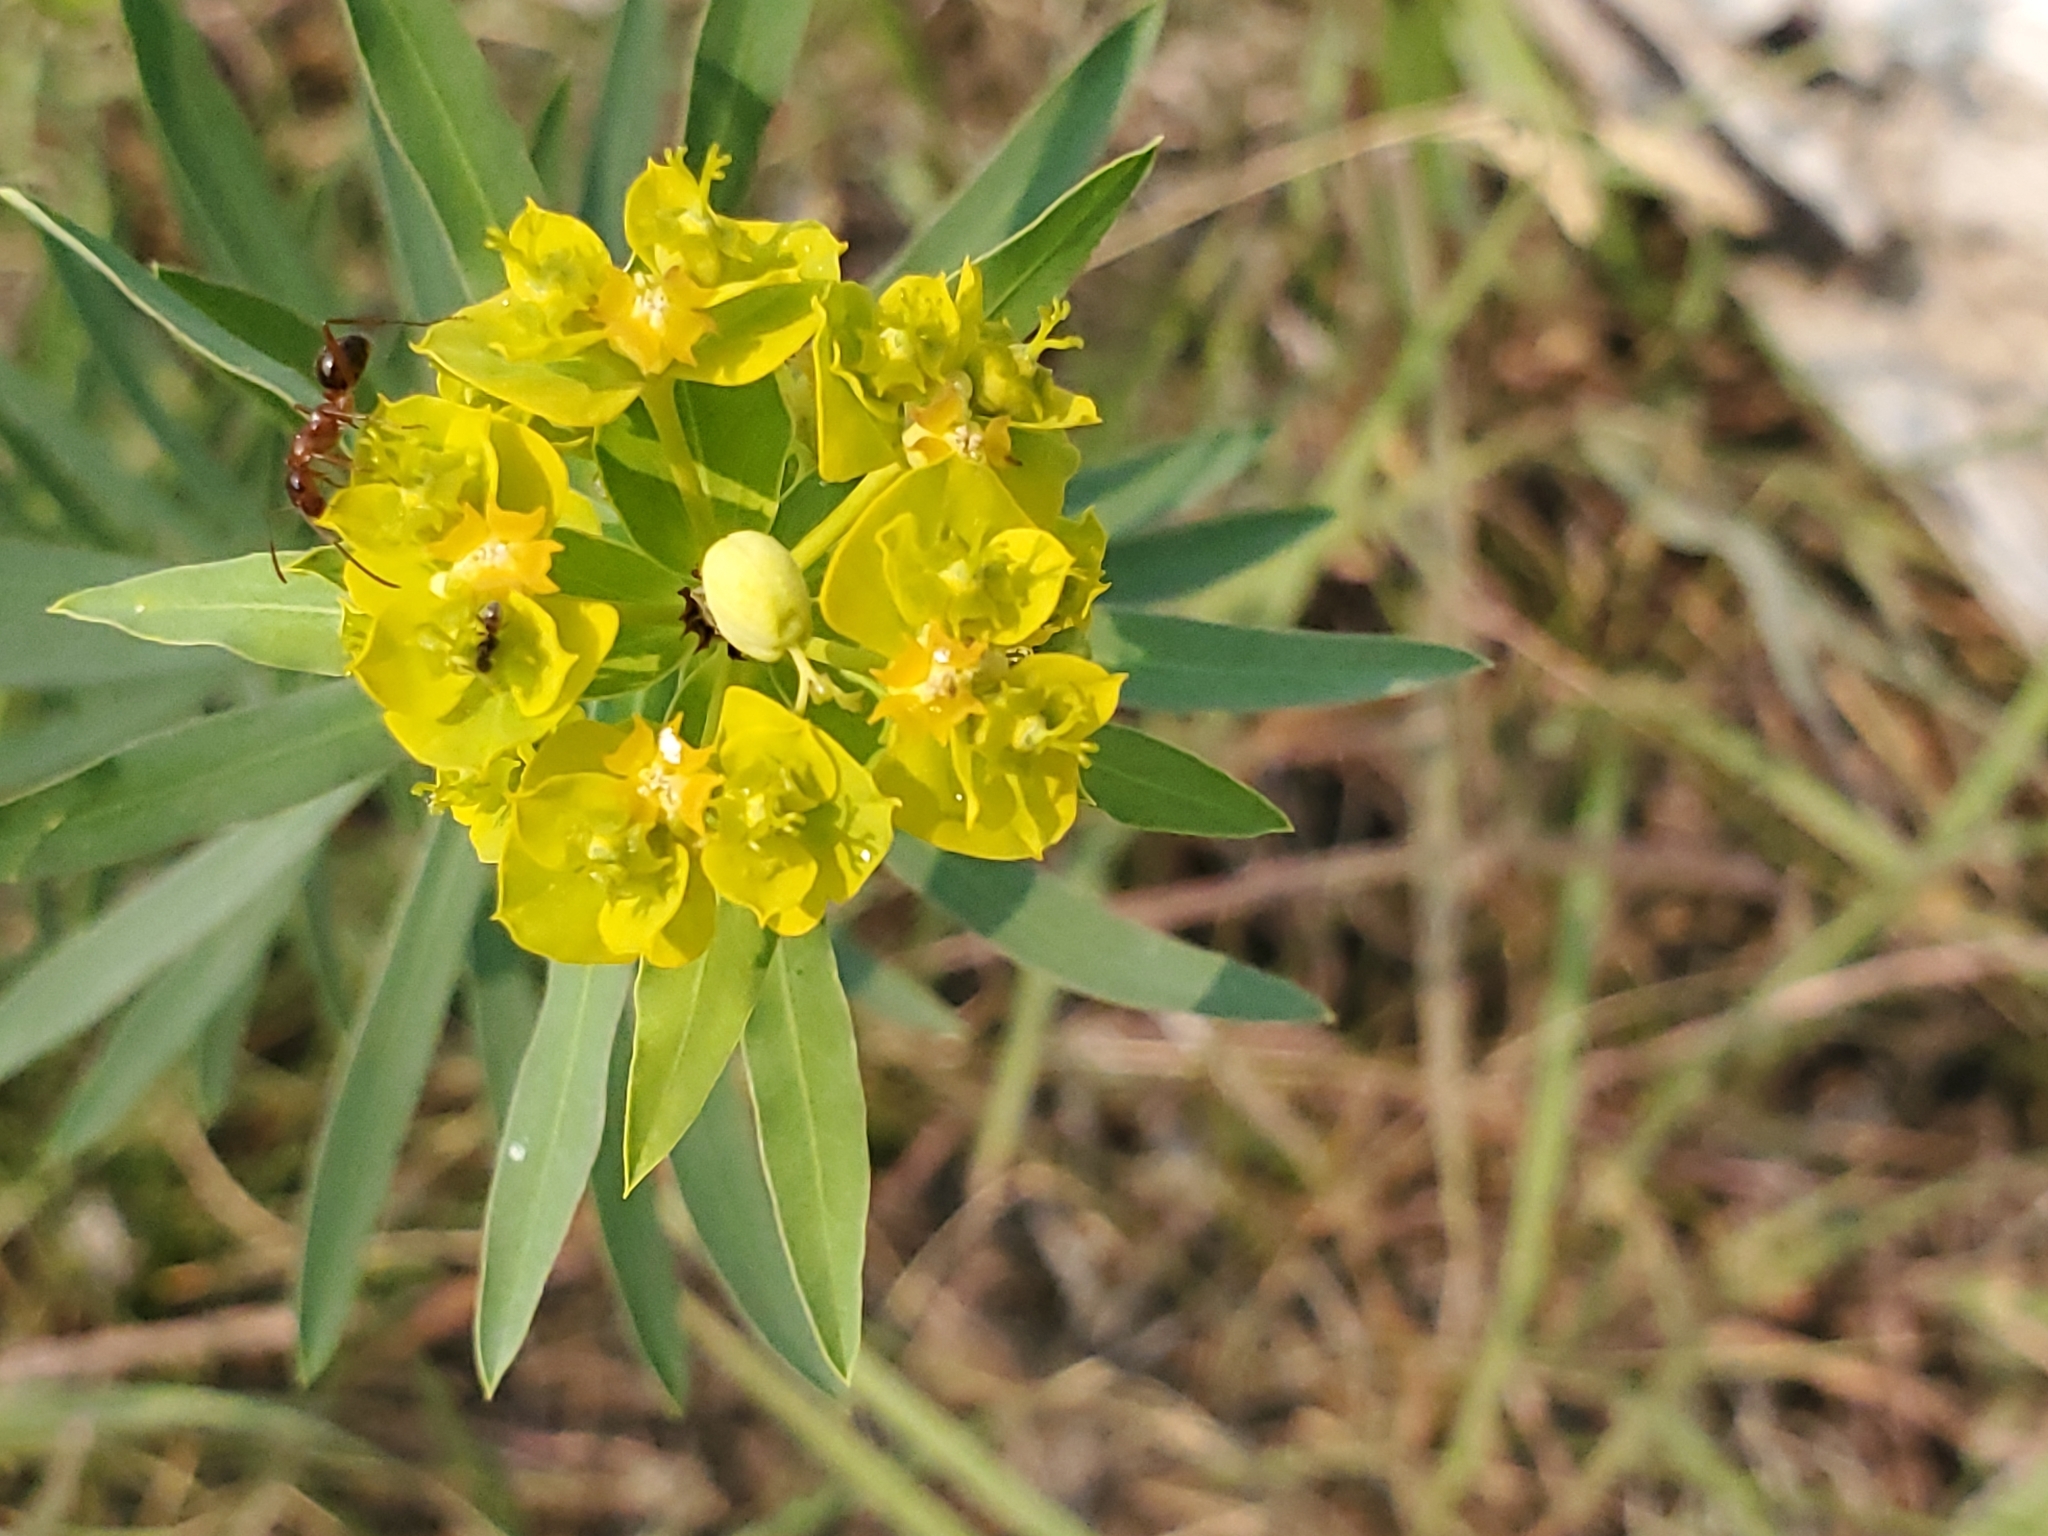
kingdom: Plantae
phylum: Tracheophyta
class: Magnoliopsida
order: Malpighiales
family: Euphorbiaceae
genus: Euphorbia
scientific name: Euphorbia esula
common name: Leafy spurge
